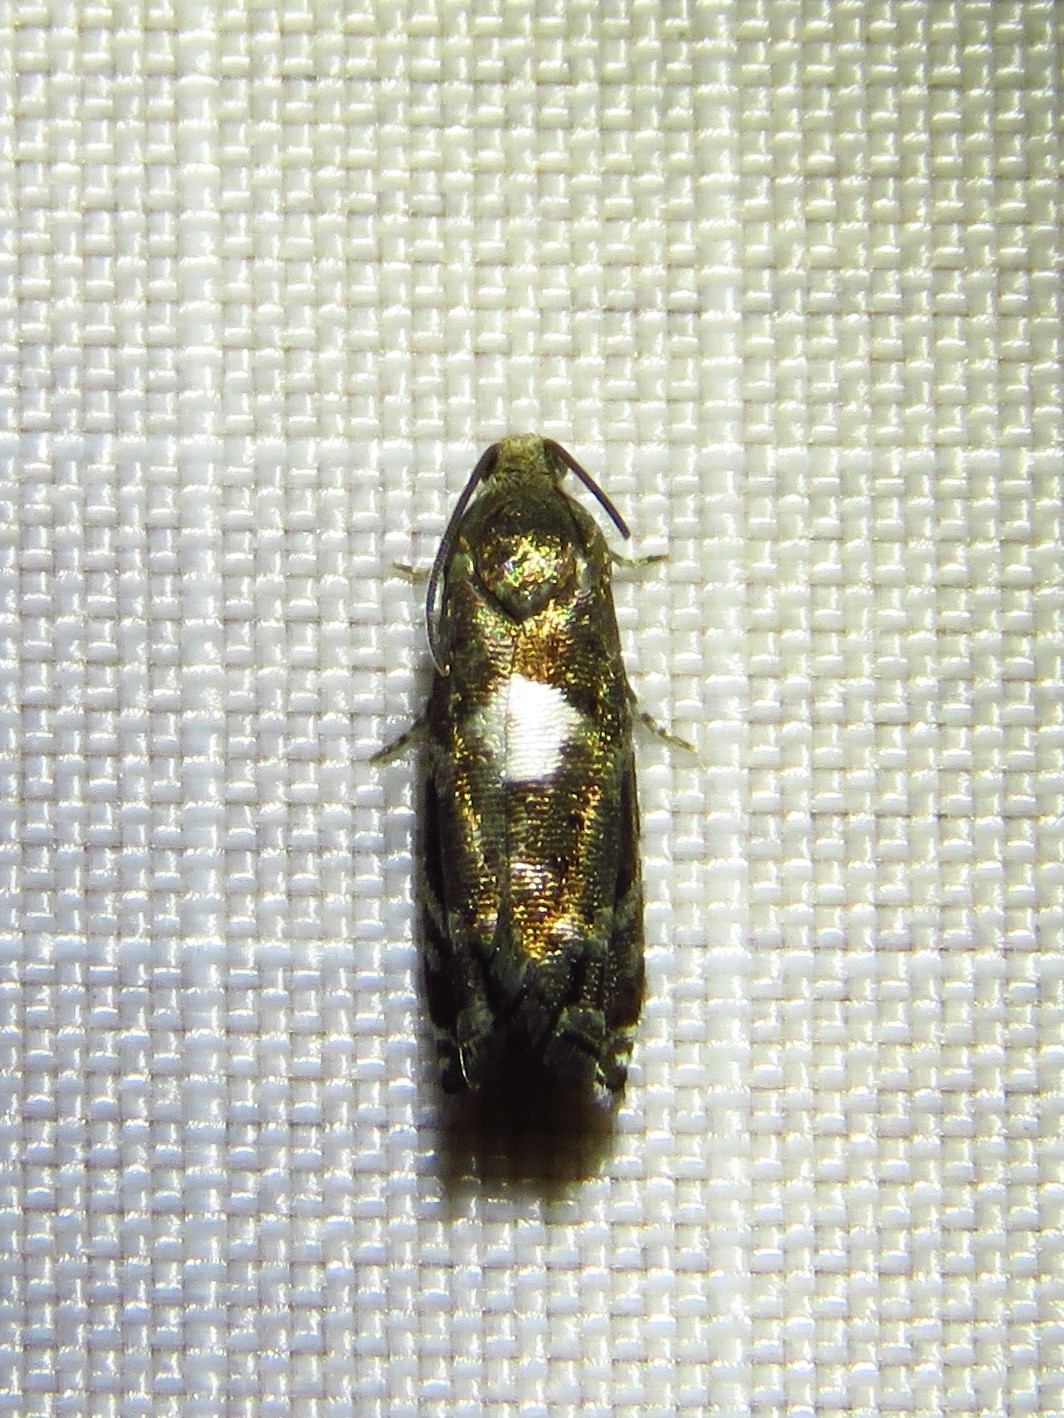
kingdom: Animalia
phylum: Arthropoda
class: Insecta
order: Lepidoptera
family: Tortricidae
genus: Cydia
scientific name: Cydia albimaculana
